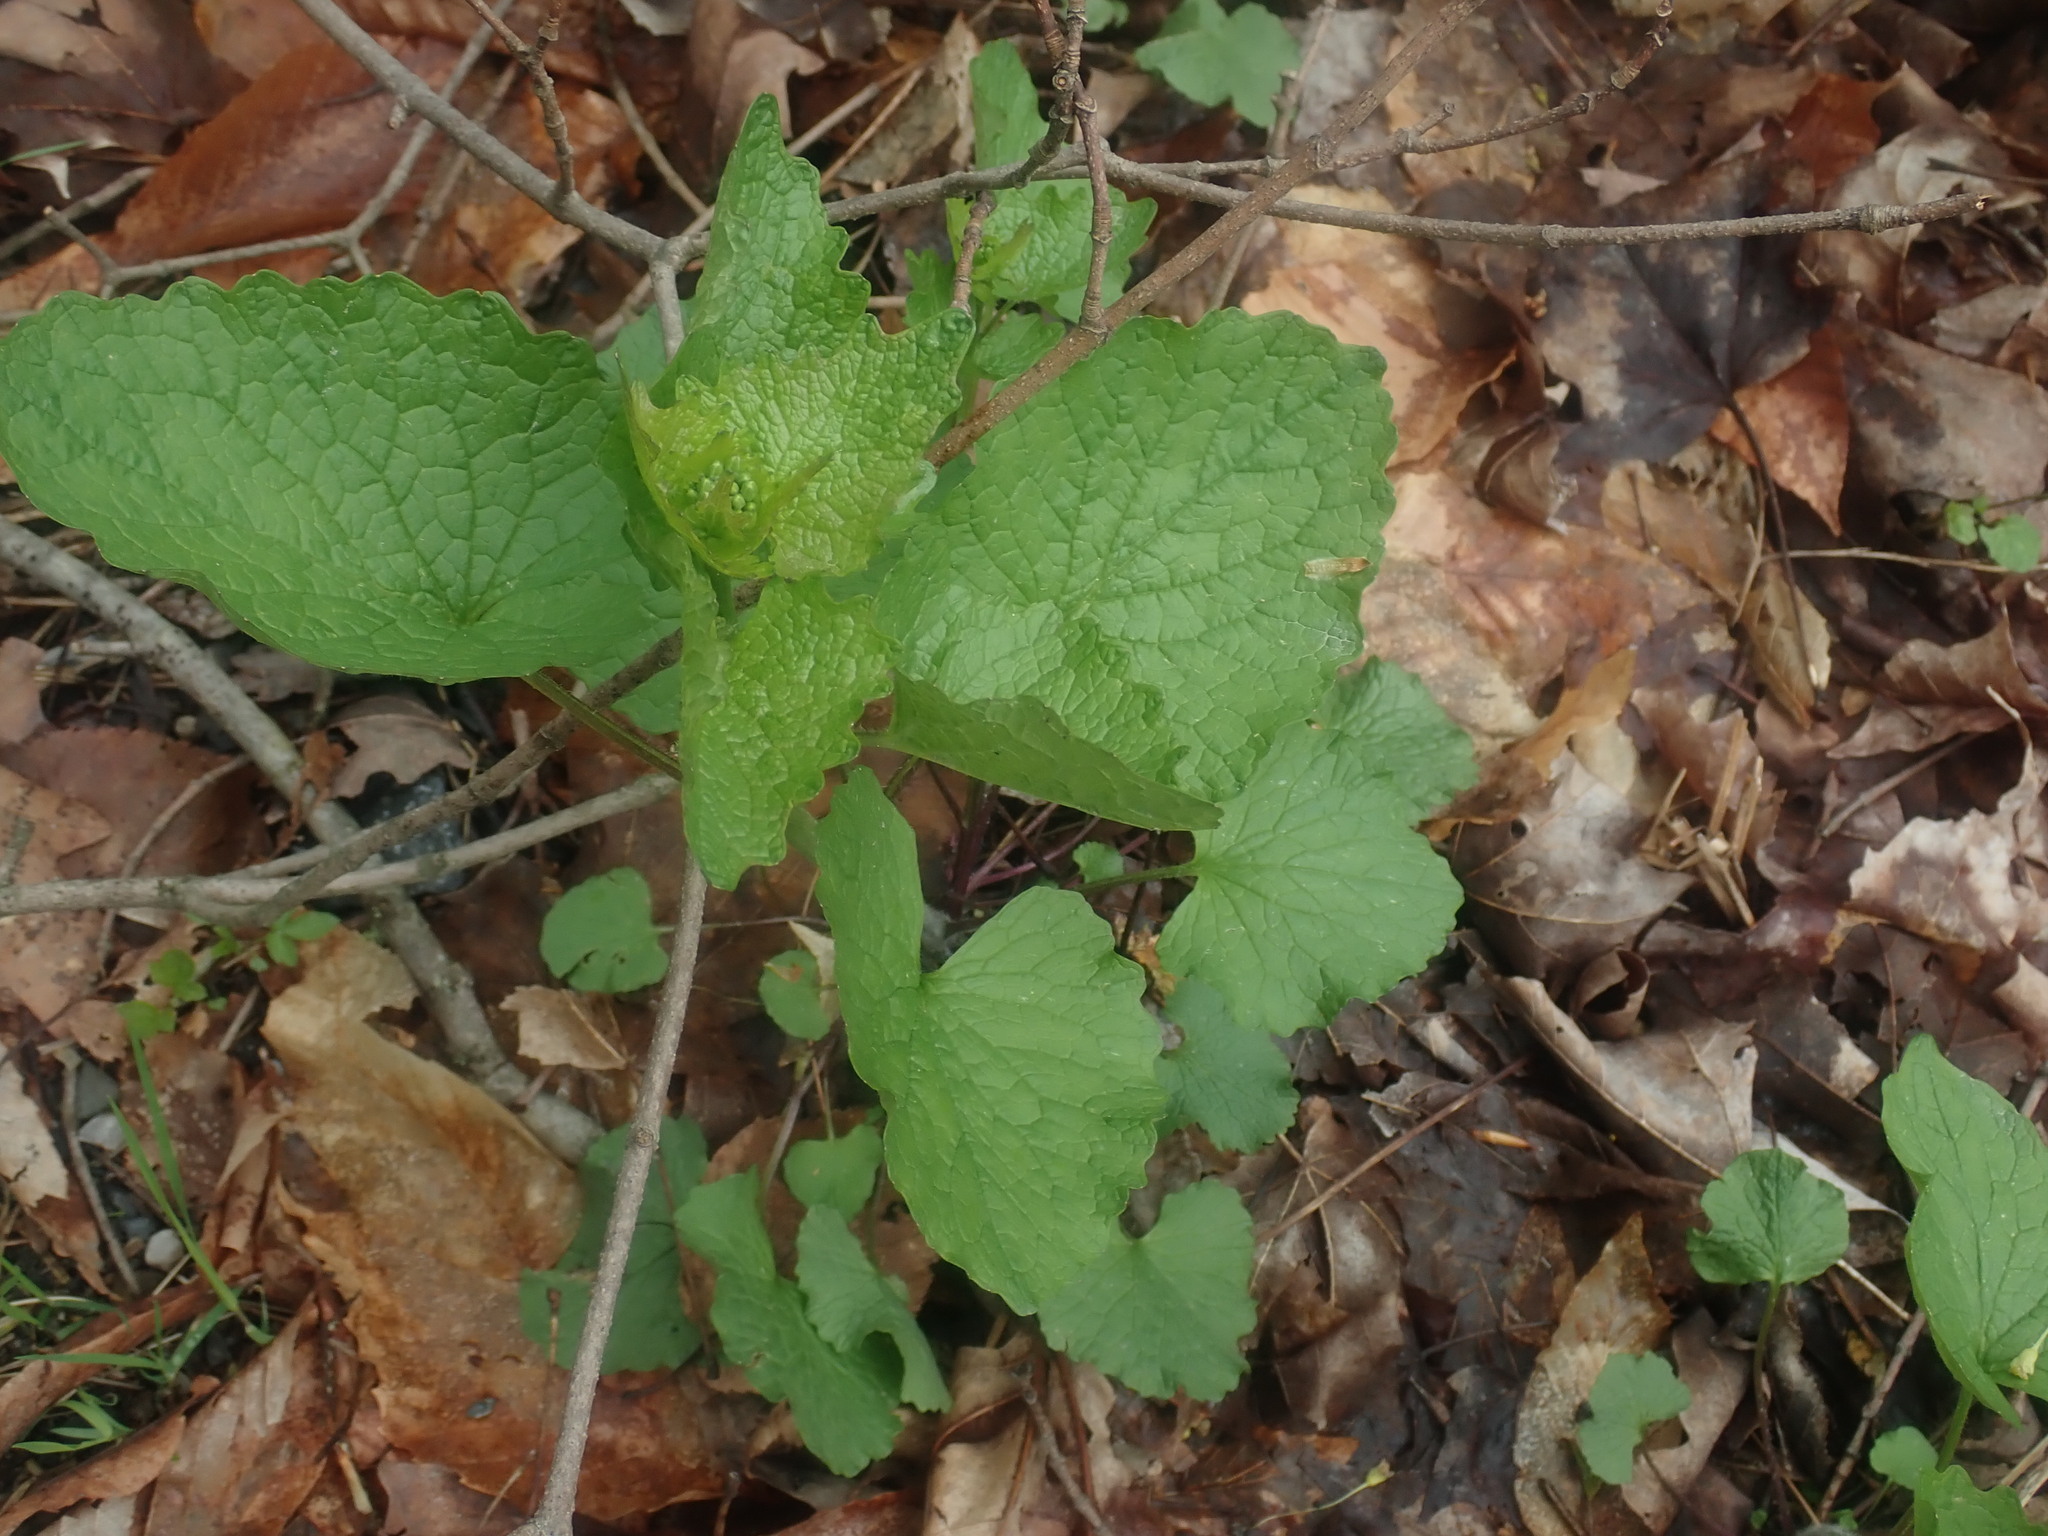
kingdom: Plantae
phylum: Tracheophyta
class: Magnoliopsida
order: Brassicales
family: Brassicaceae
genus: Alliaria
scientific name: Alliaria petiolata
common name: Garlic mustard
